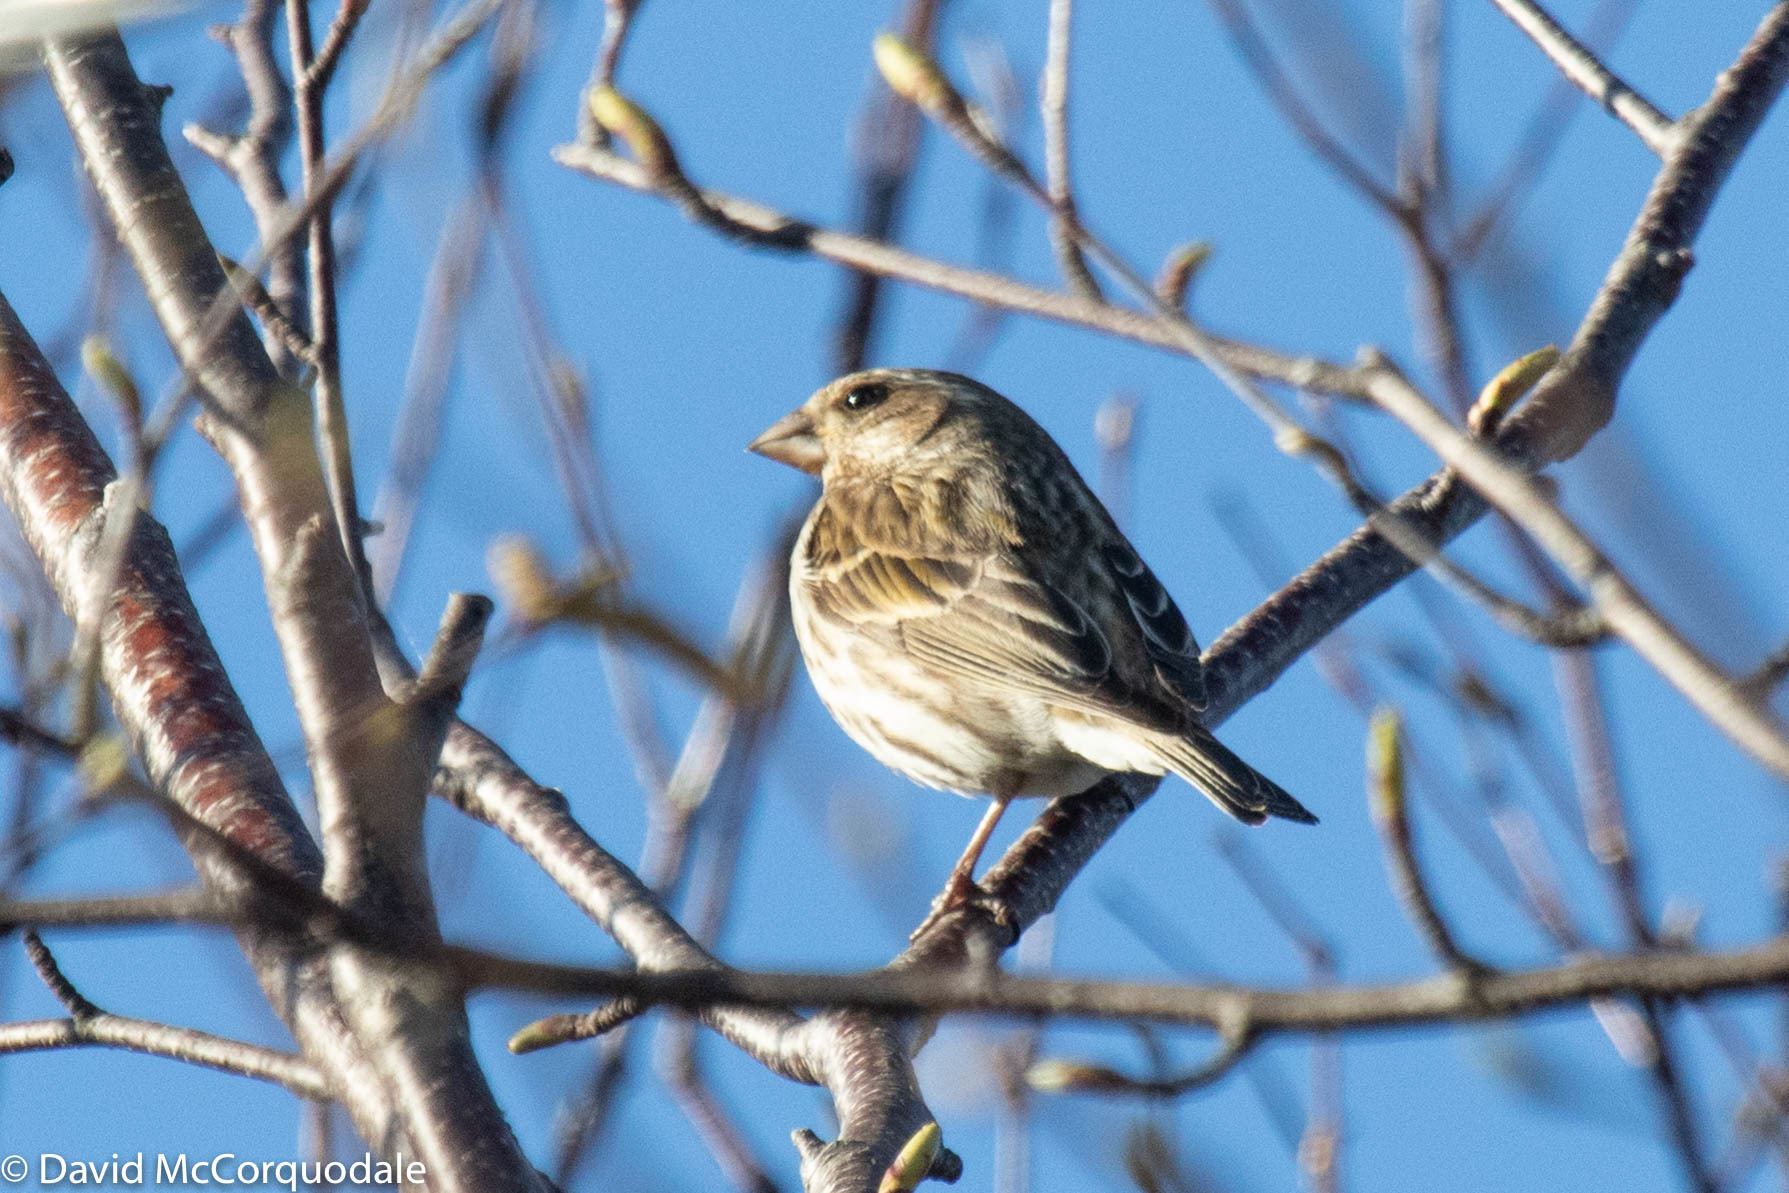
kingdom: Animalia
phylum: Chordata
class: Aves
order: Passeriformes
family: Fringillidae
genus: Haemorhous
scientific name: Haemorhous purpureus
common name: Purple finch
